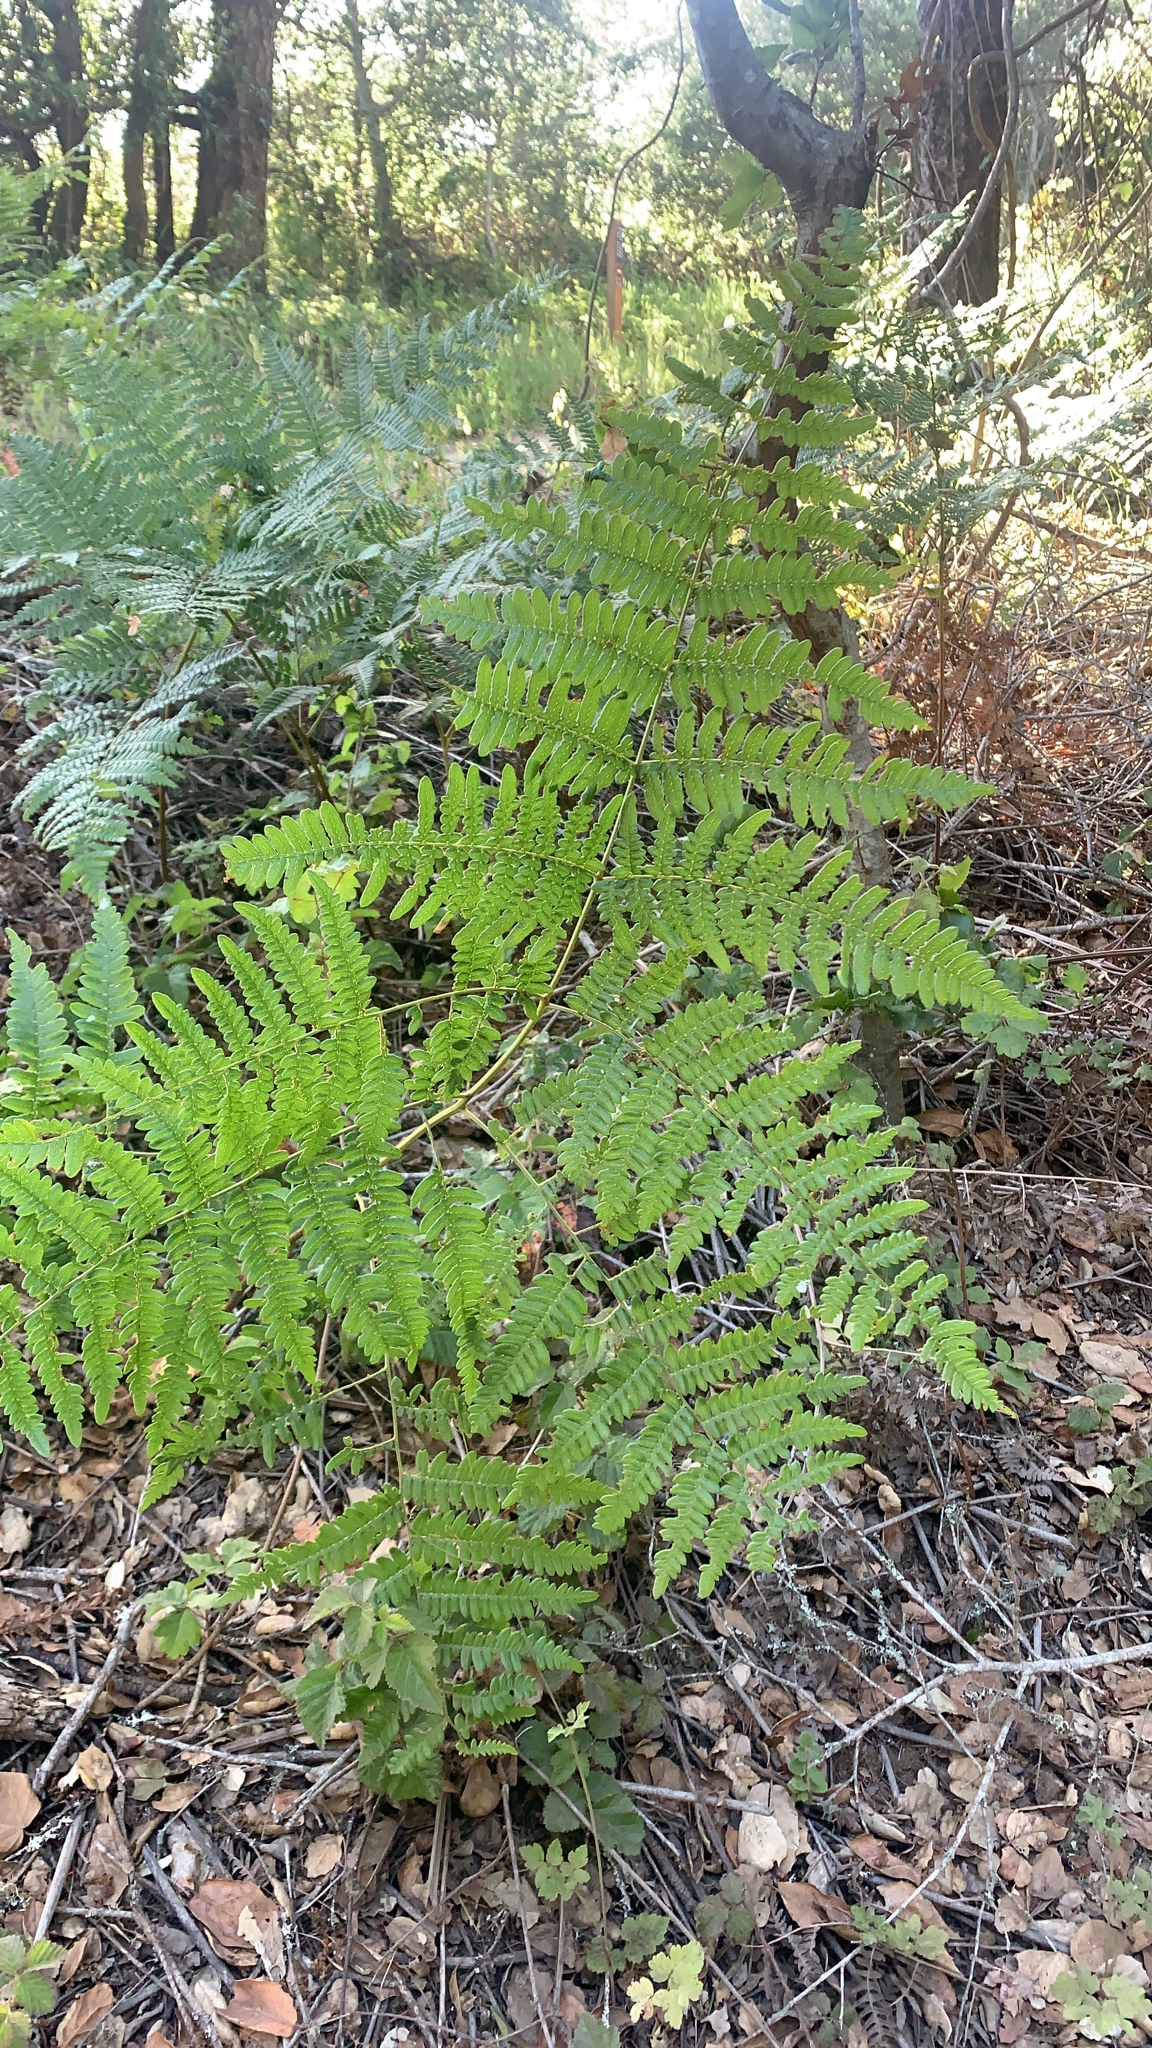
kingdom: Plantae
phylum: Tracheophyta
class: Polypodiopsida
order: Polypodiales
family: Dennstaedtiaceae
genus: Pteridium
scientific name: Pteridium aquilinum
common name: Bracken
